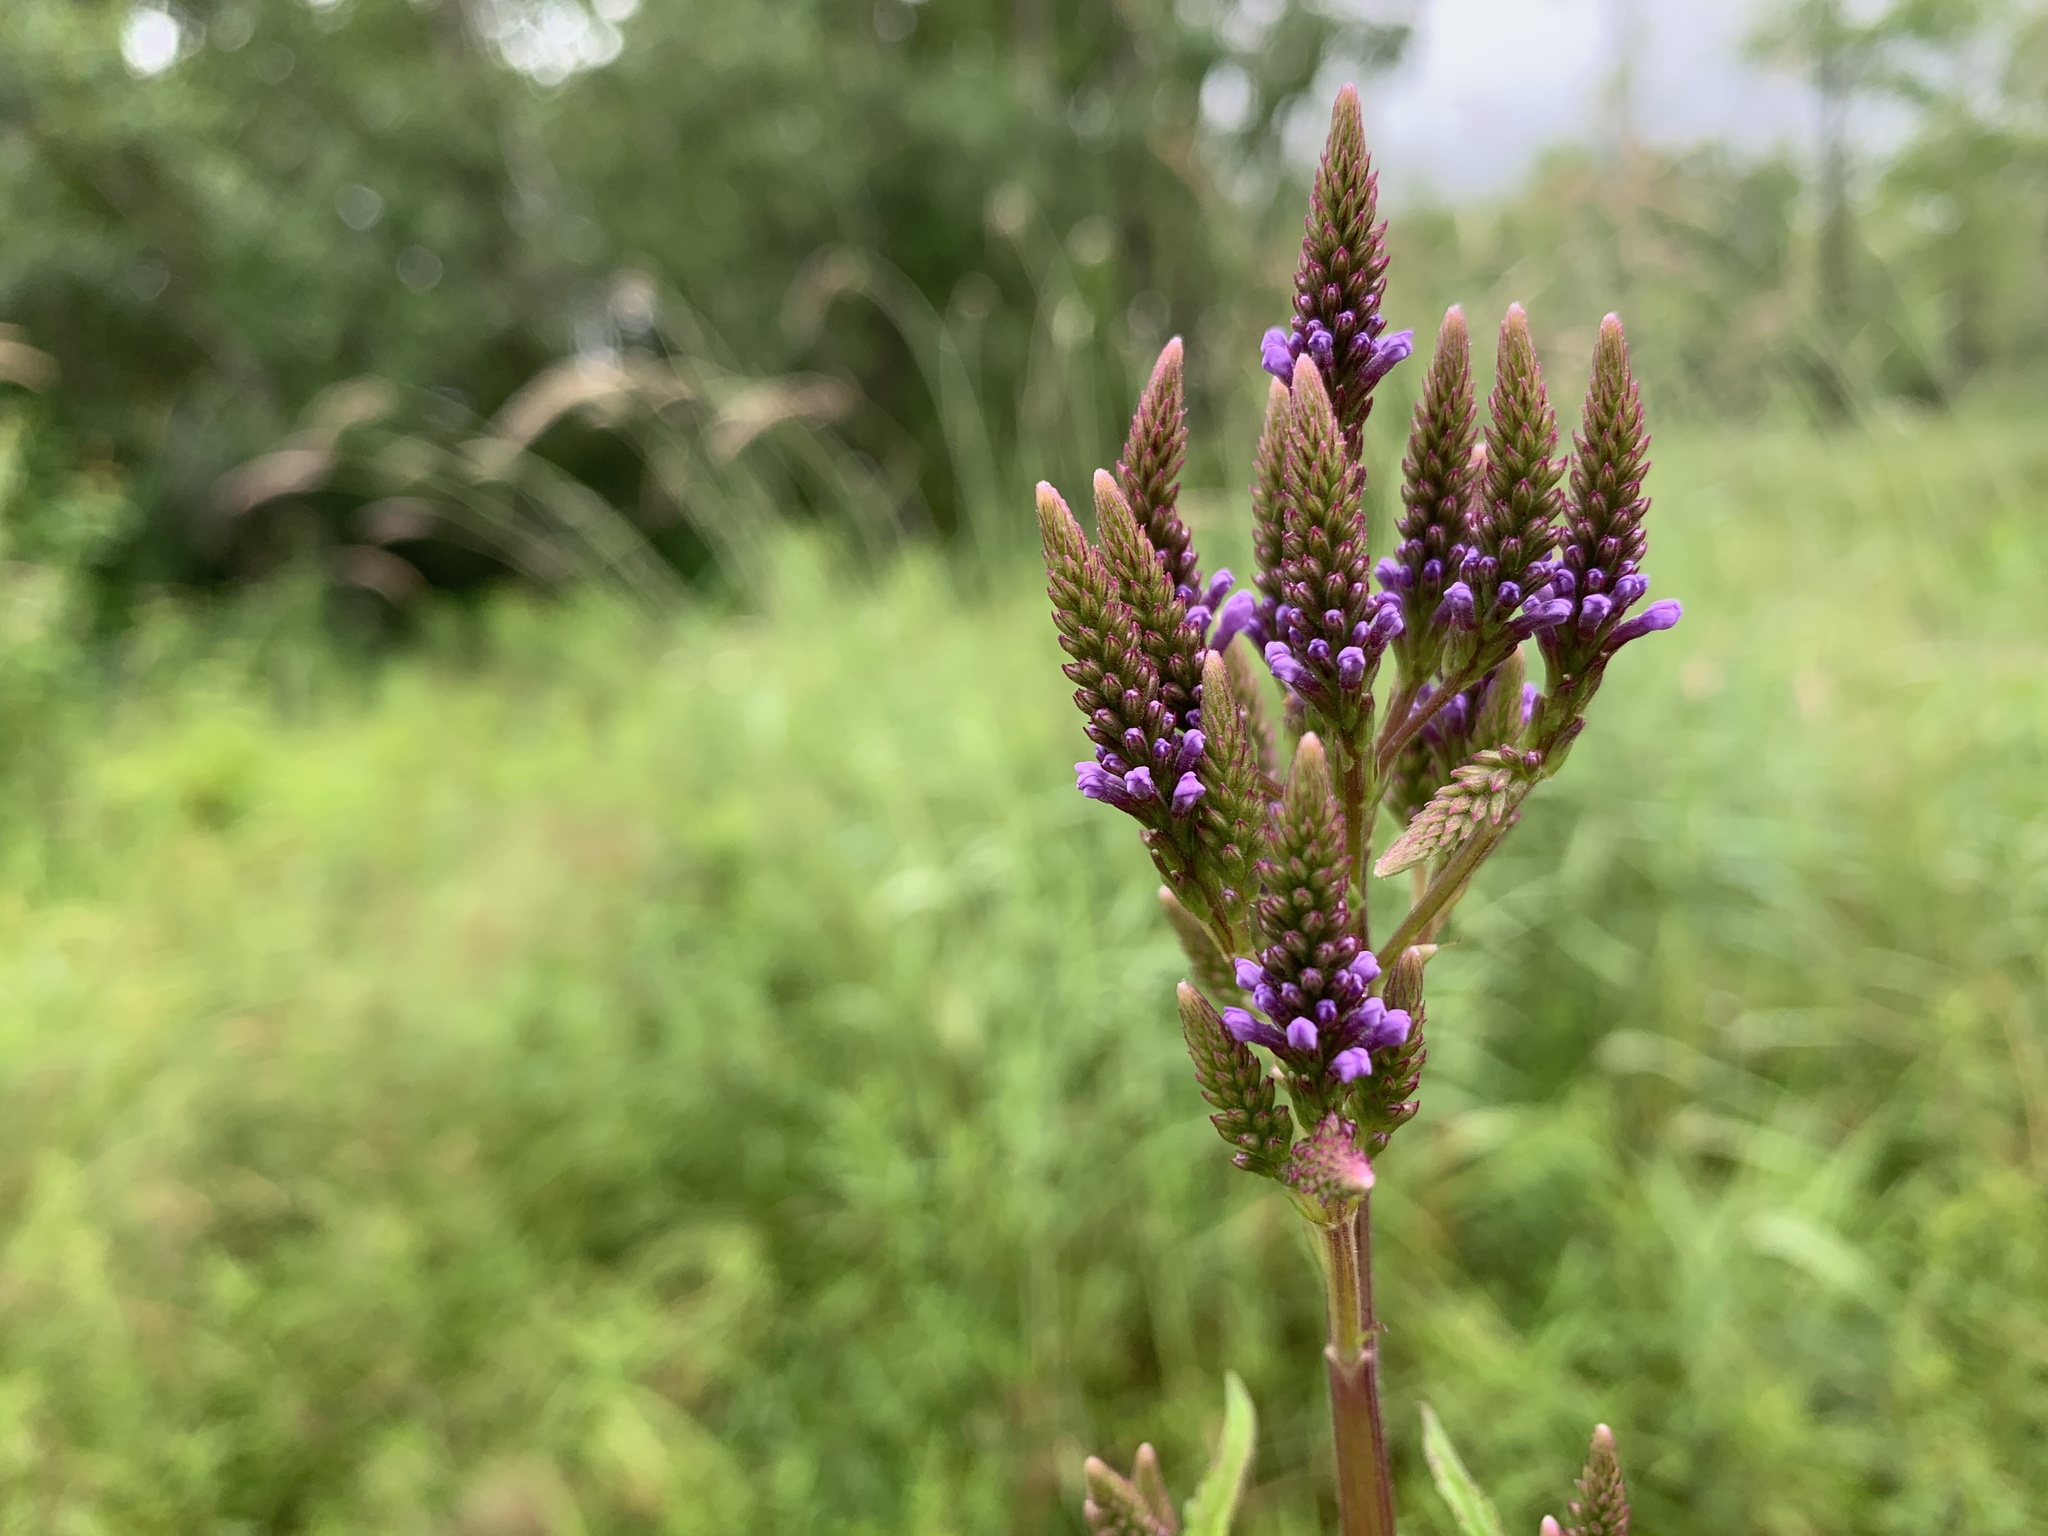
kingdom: Plantae
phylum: Tracheophyta
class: Magnoliopsida
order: Lamiales
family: Verbenaceae
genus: Verbena
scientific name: Verbena hastata
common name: American blue vervain
